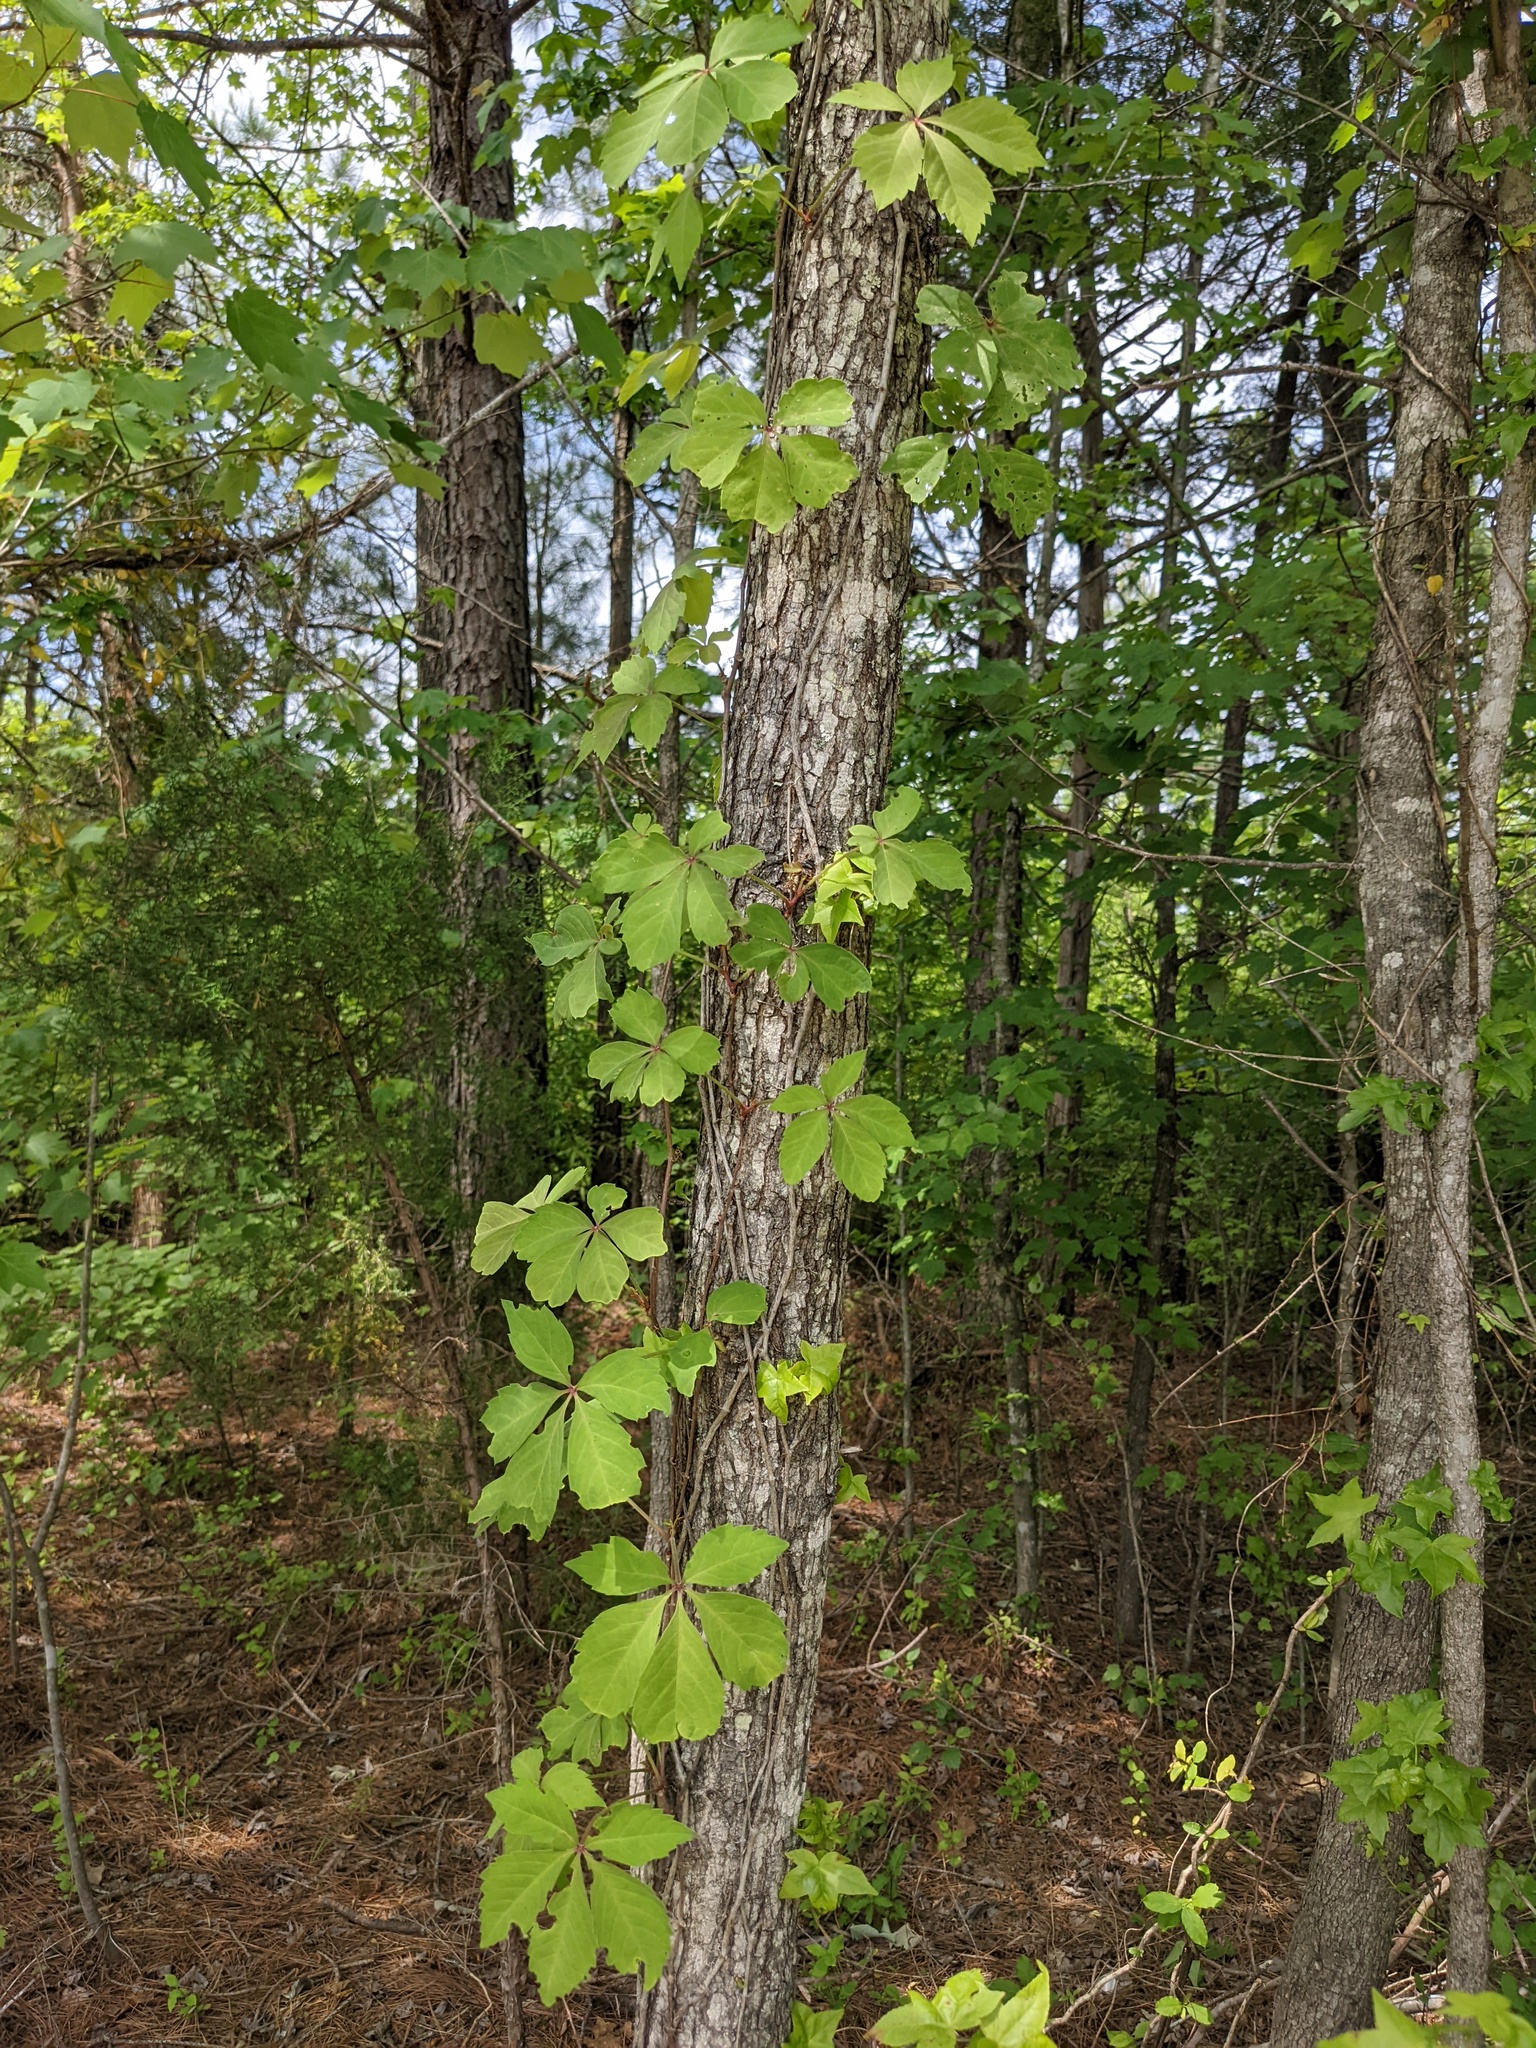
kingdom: Plantae
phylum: Tracheophyta
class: Magnoliopsida
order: Vitales
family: Vitaceae
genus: Parthenocissus
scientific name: Parthenocissus quinquefolia
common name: Virginia-creeper
